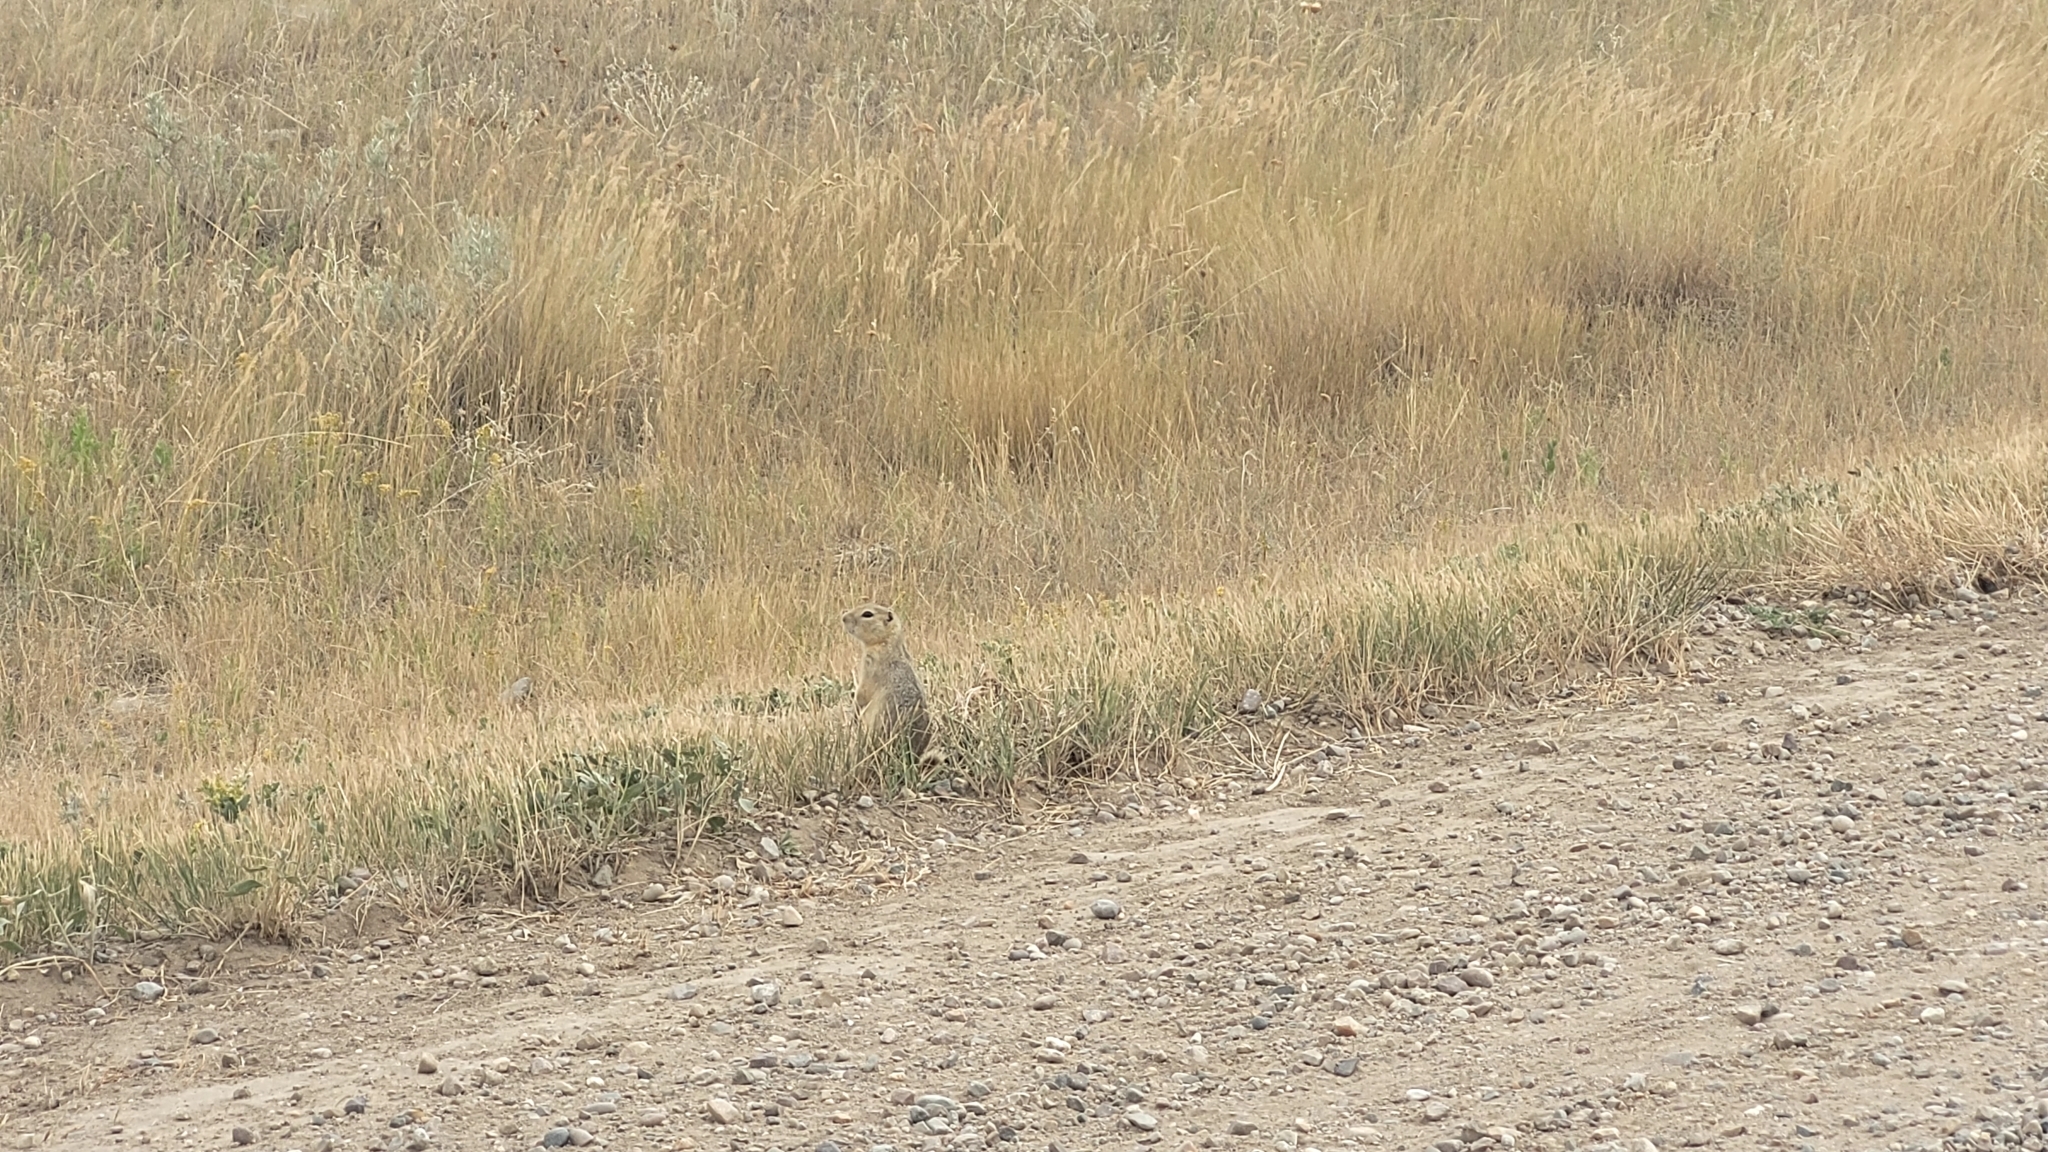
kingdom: Animalia
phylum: Chordata
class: Mammalia
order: Rodentia
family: Sciuridae
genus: Urocitellus
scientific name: Urocitellus richardsonii
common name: Richardson's ground squirrel
